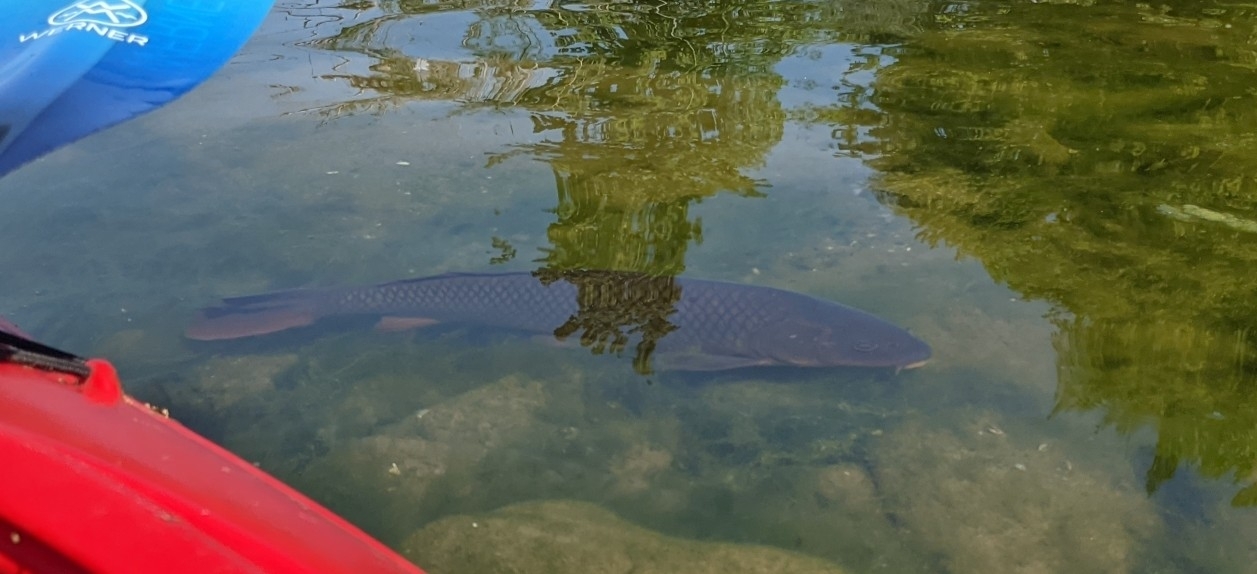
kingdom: Animalia
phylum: Chordata
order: Cypriniformes
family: Cyprinidae
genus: Cyprinus
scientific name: Cyprinus carpio
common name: Common carp
